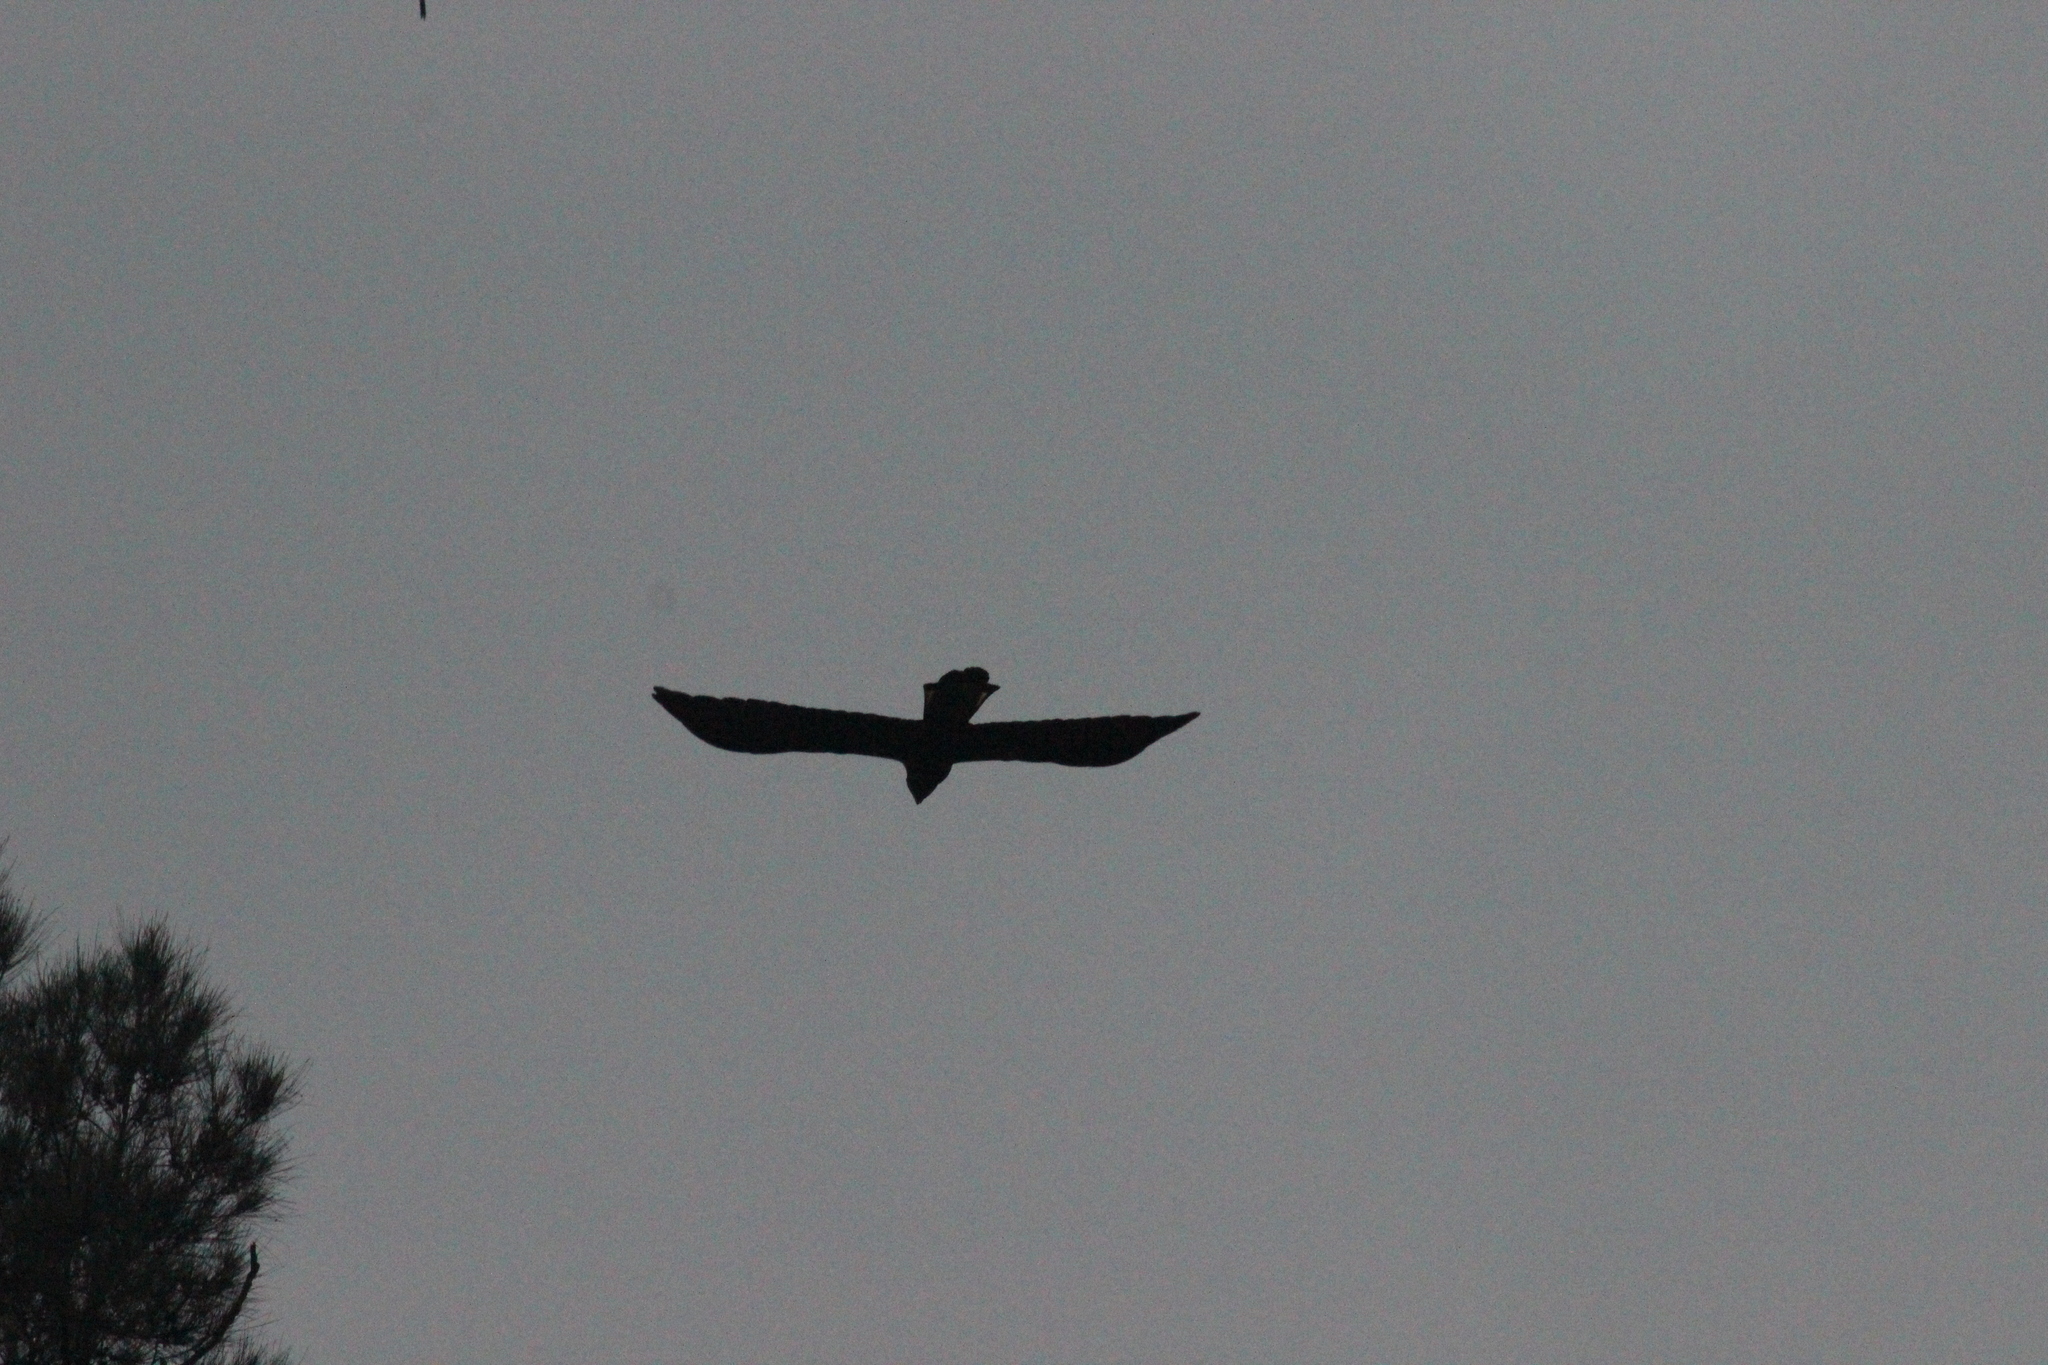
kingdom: Animalia
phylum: Chordata
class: Aves
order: Psittaciformes
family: Cacatuidae
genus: Zanda
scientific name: Zanda funerea
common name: Yellow-tailed black-cockatoo
